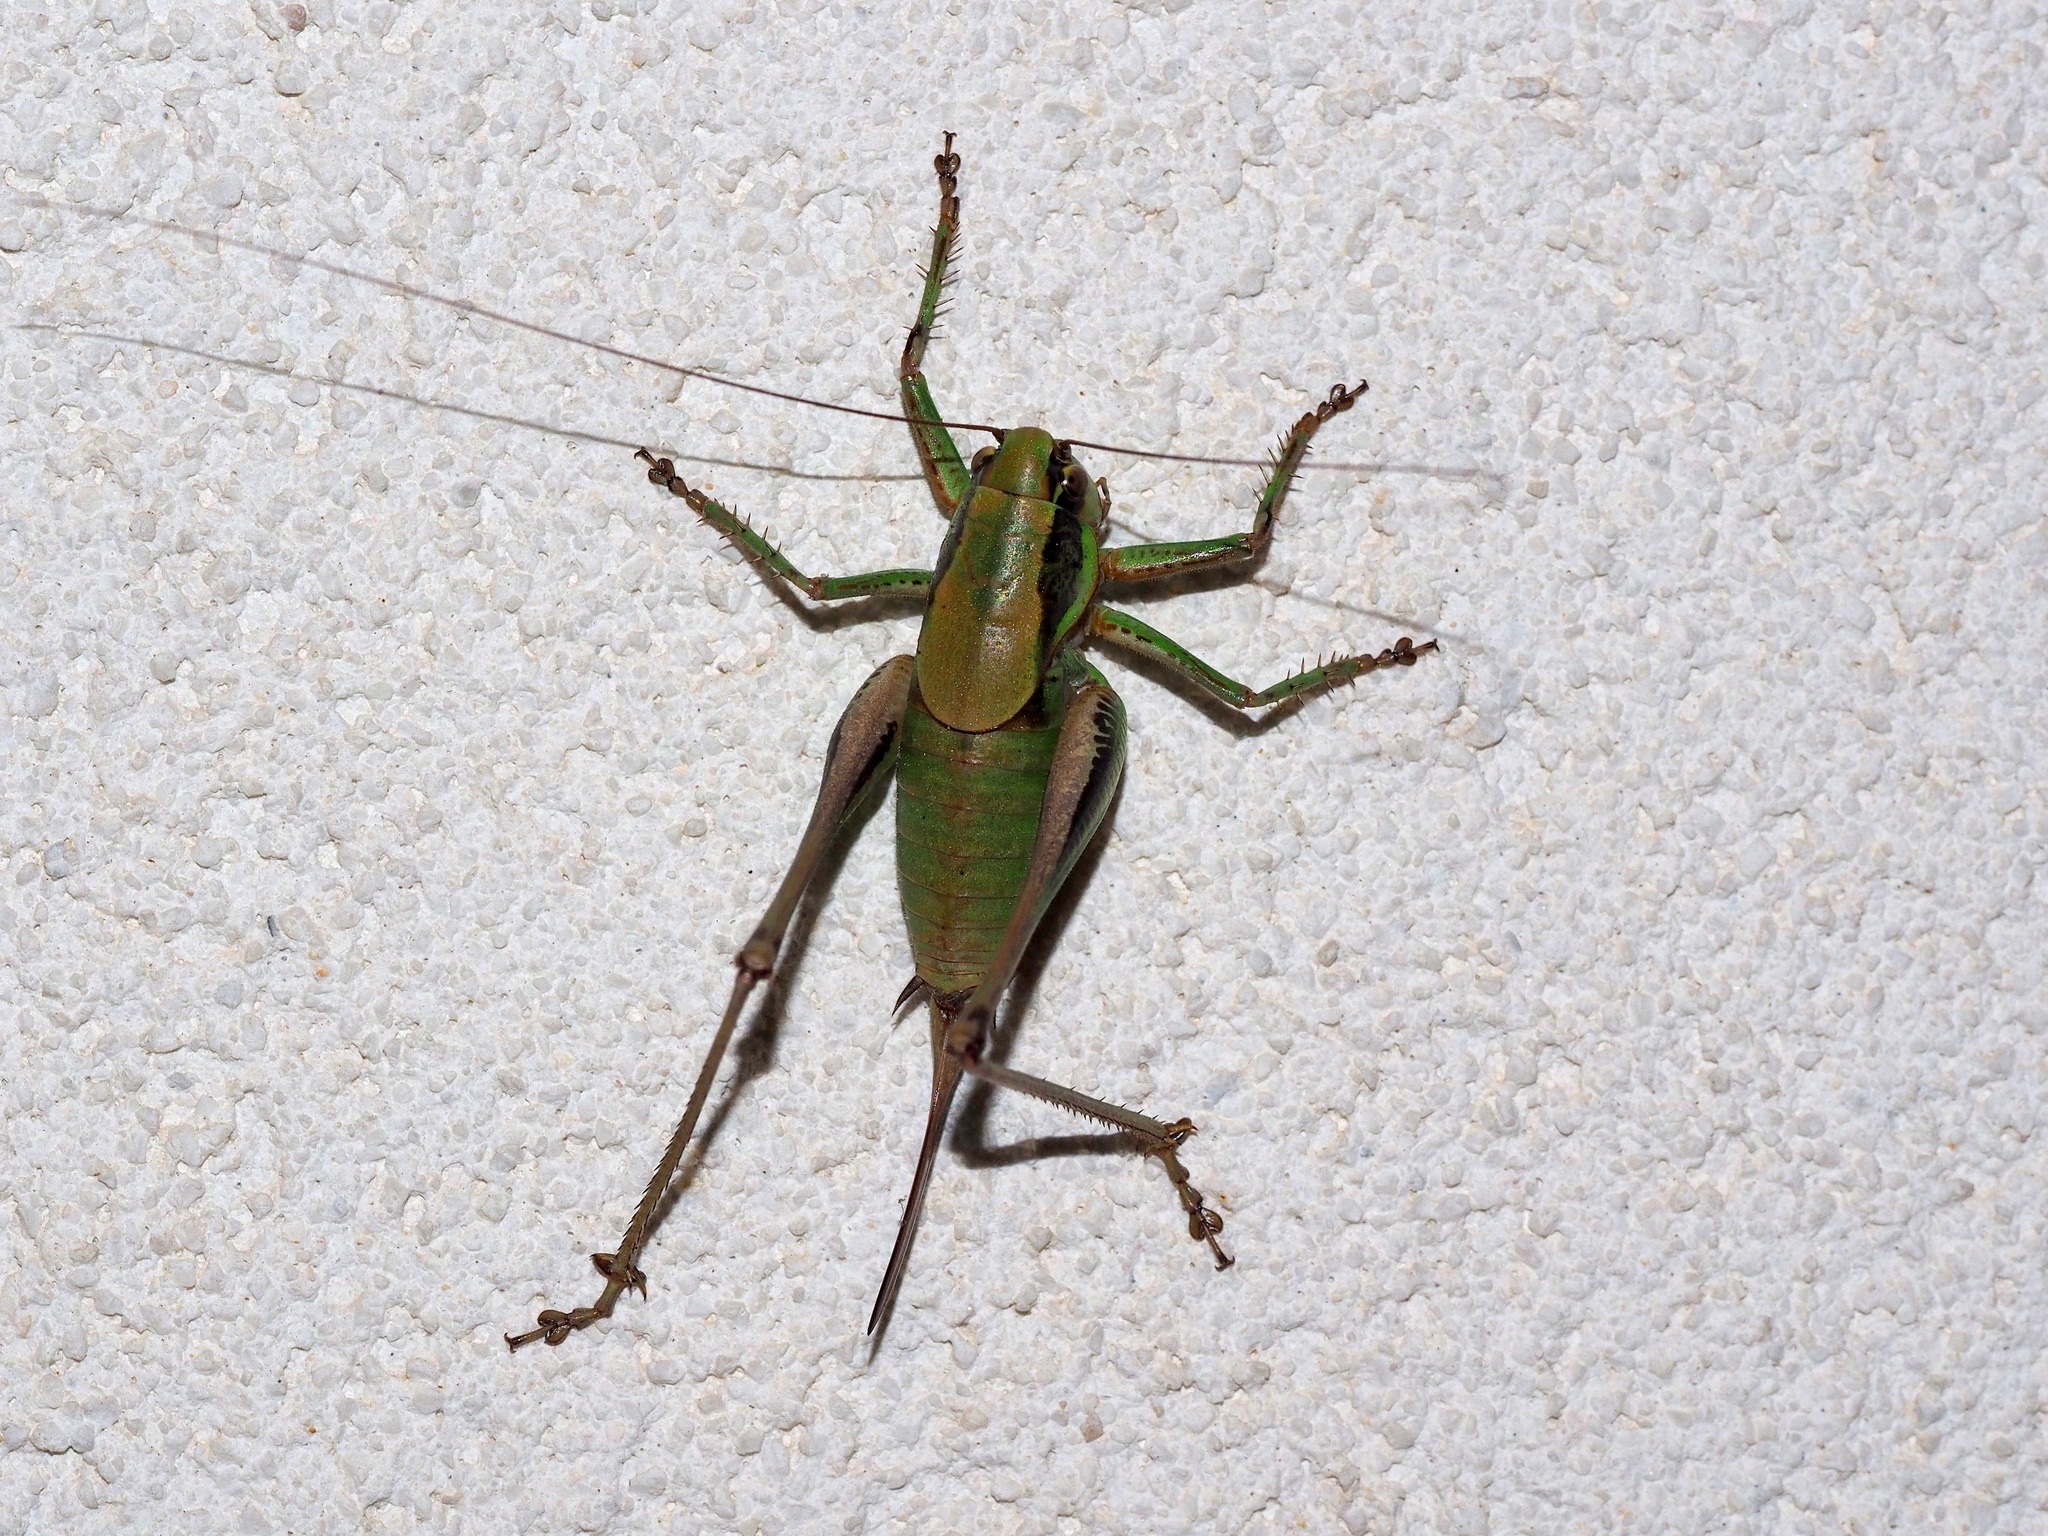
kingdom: Animalia
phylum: Arthropoda
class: Insecta
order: Orthoptera
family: Tettigoniidae
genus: Eupholidoptera
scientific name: Eupholidoptera bimucronata
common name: Sicilian marbled bush-cricket
